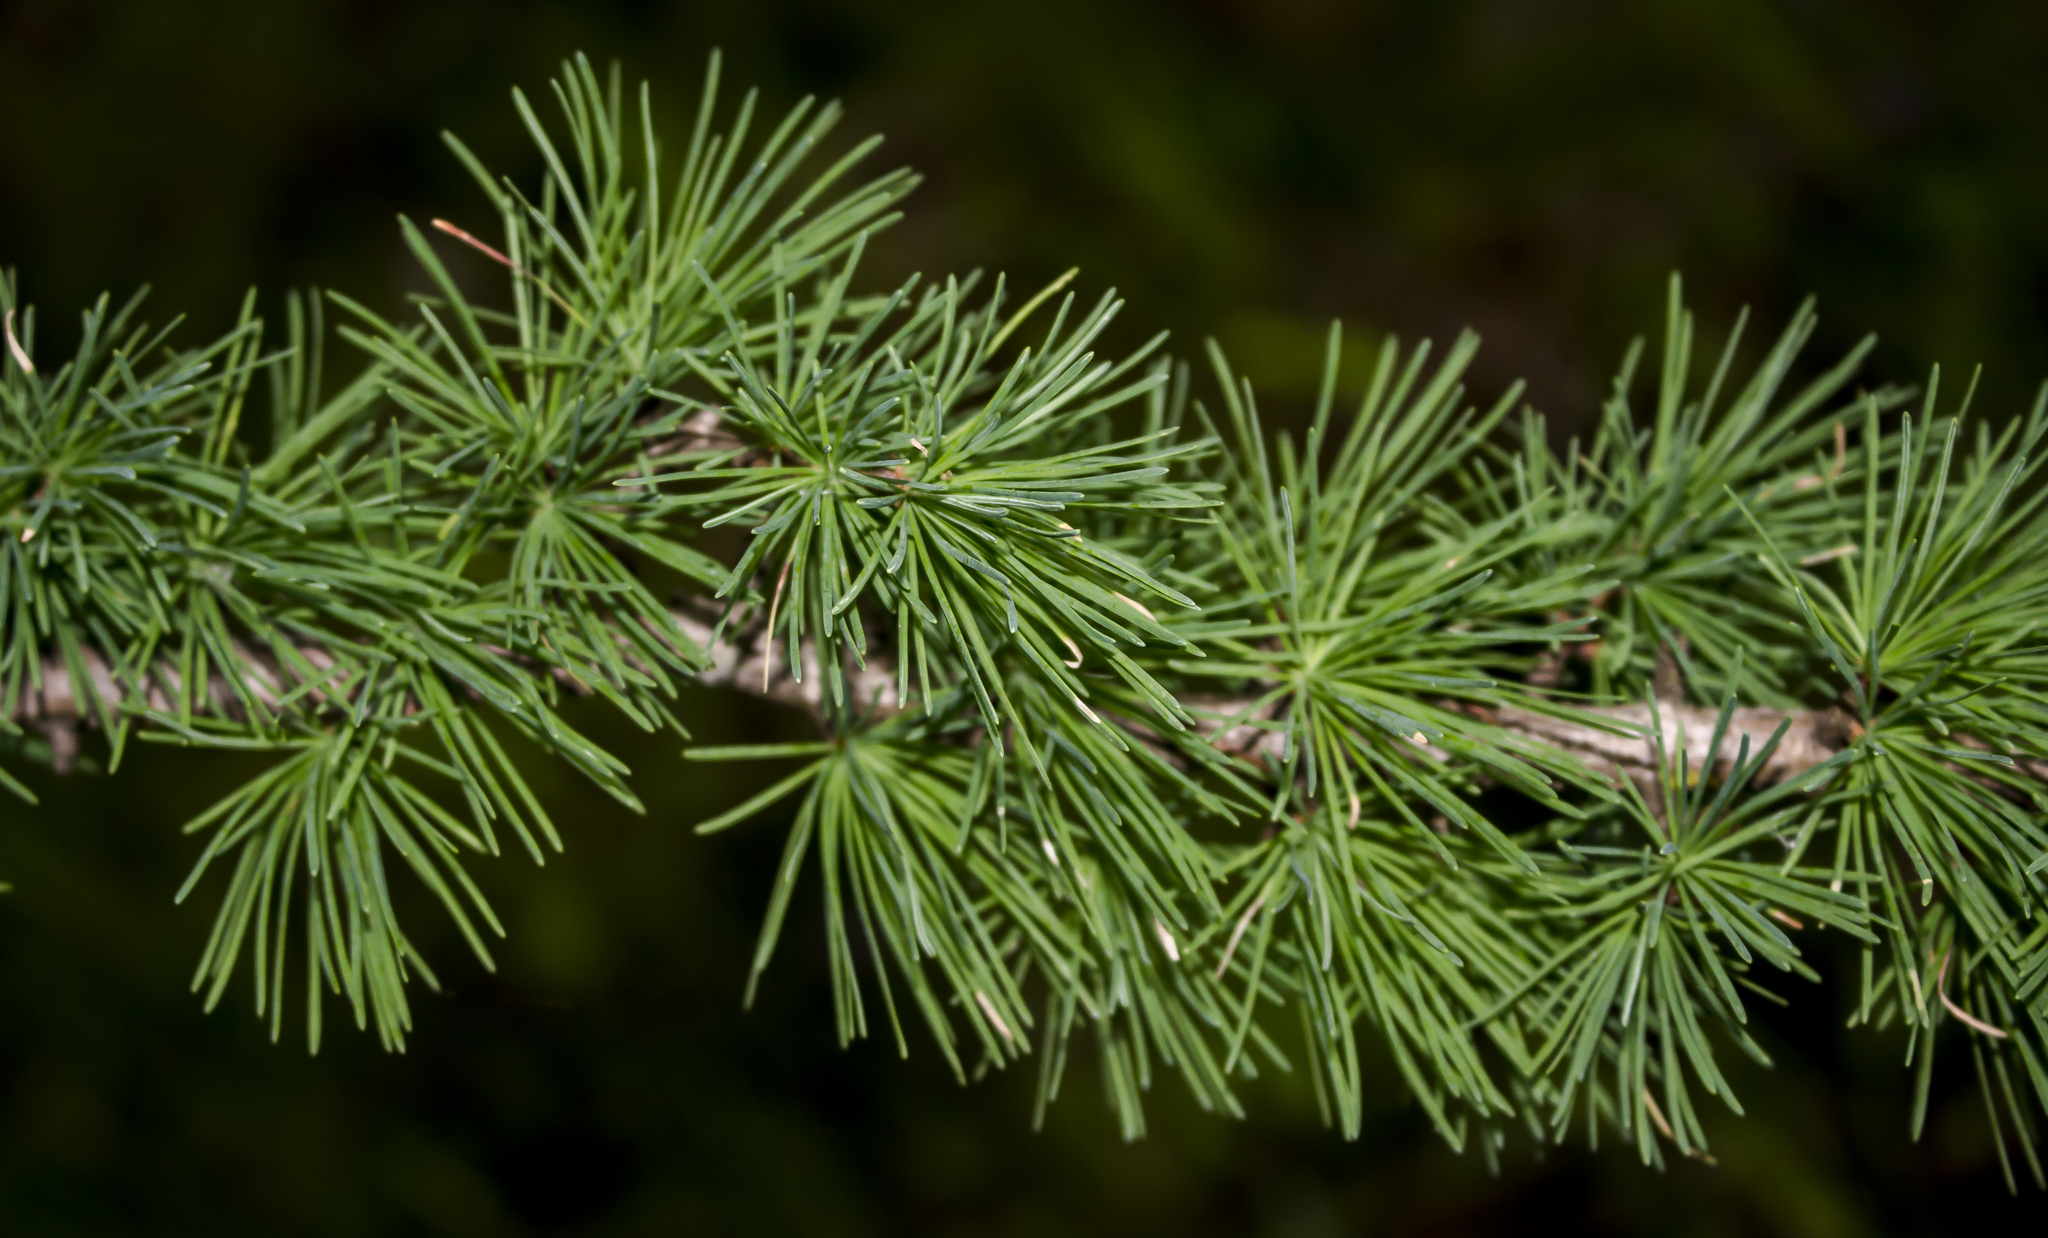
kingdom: Plantae
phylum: Tracheophyta
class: Pinopsida
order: Pinales
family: Pinaceae
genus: Larix
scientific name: Larix laricina
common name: American larch
